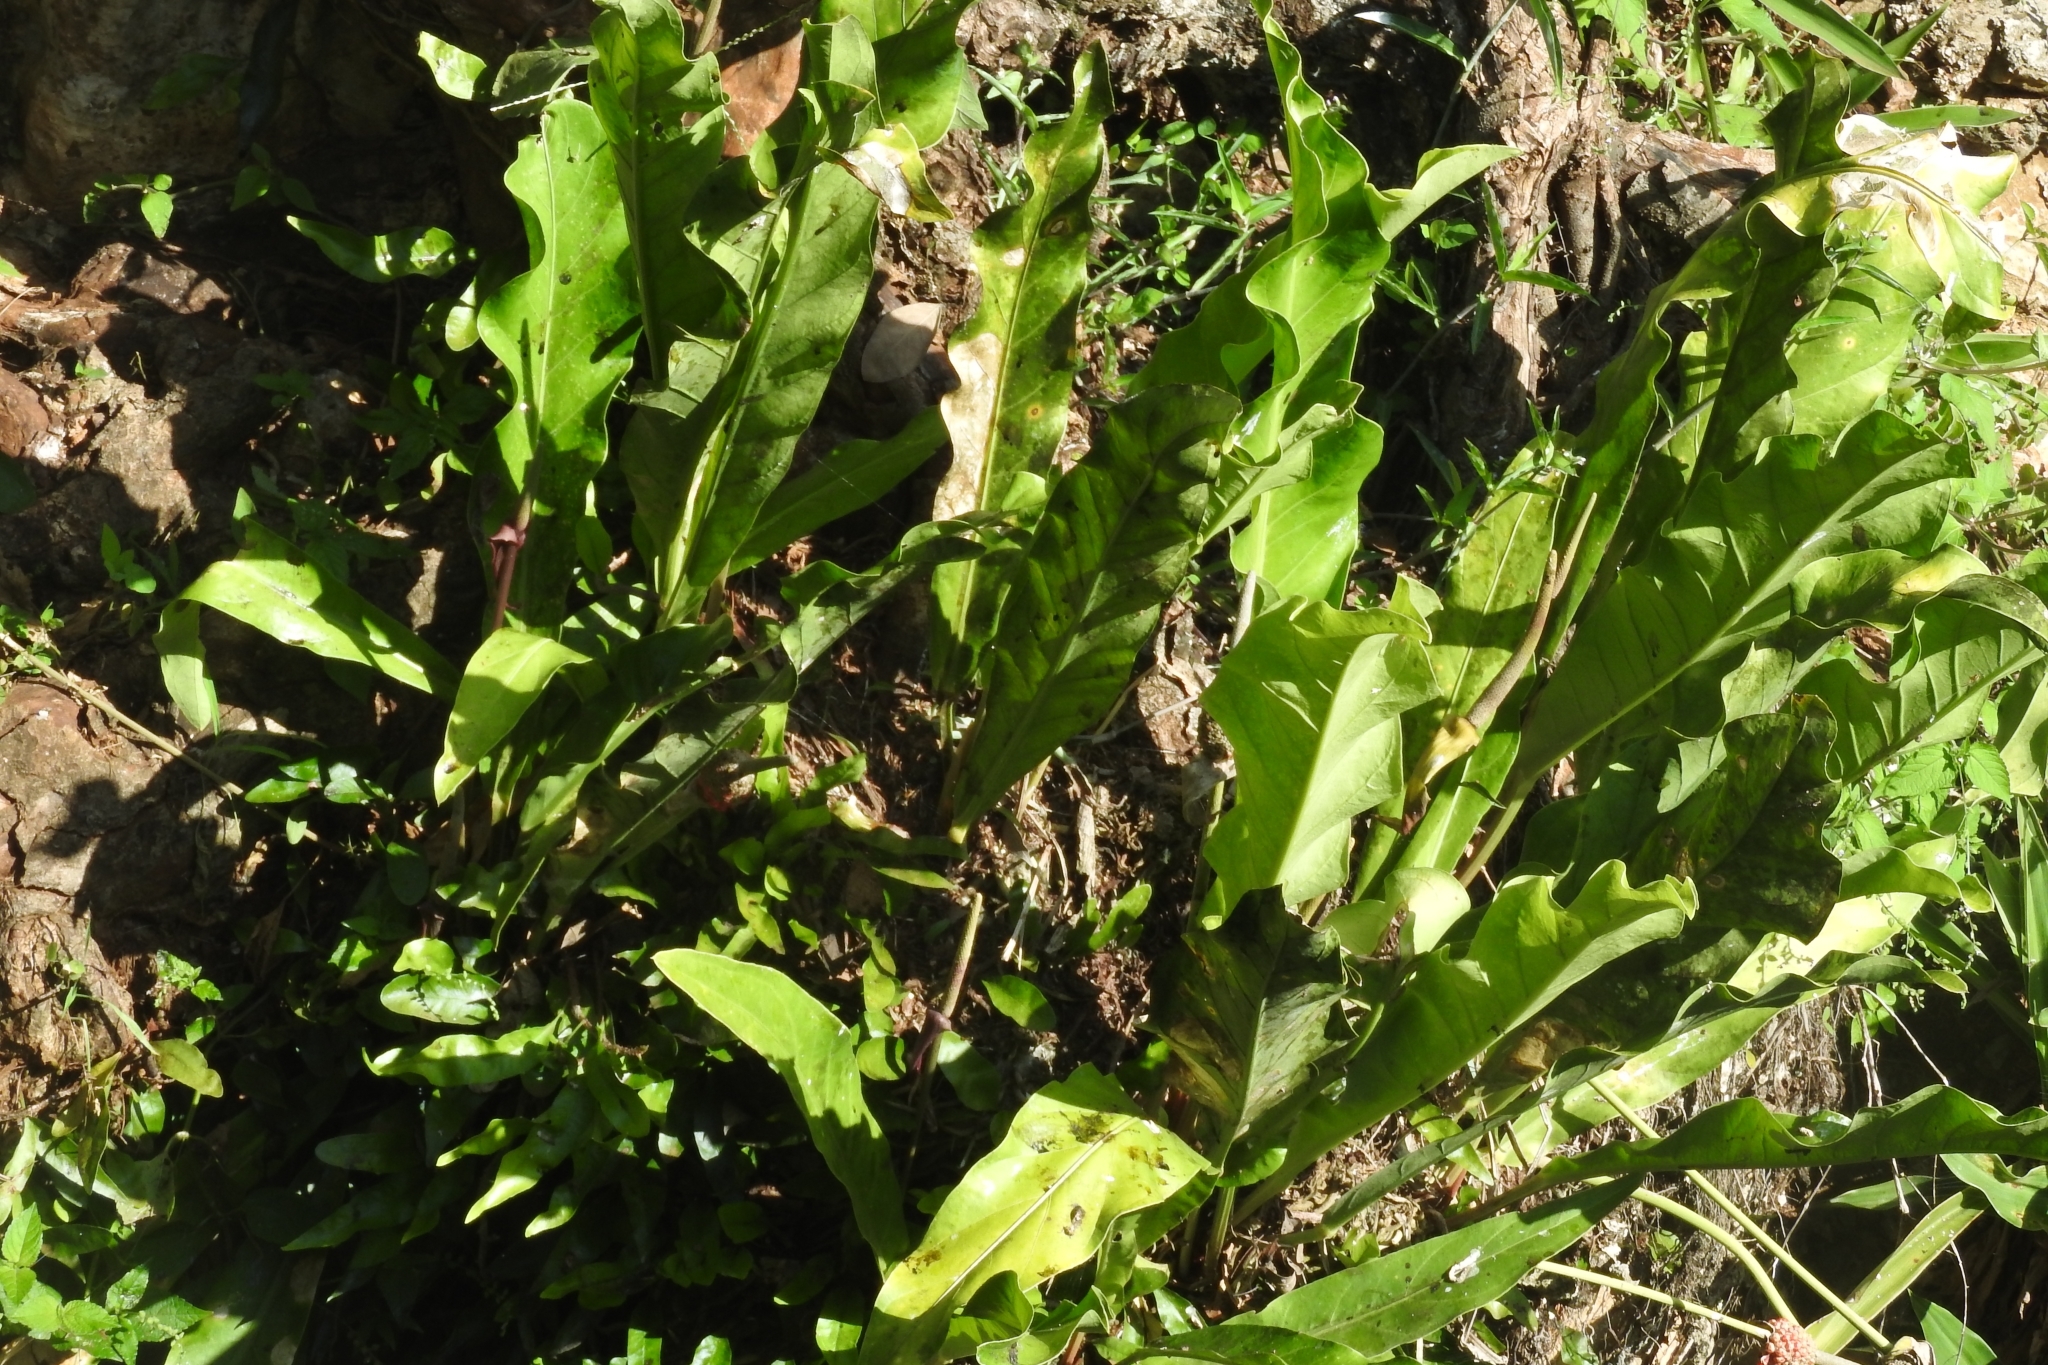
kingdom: Plantae
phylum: Tracheophyta
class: Liliopsida
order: Alismatales
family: Araceae
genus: Anthurium
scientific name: Anthurium schlechtendalii
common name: Laceleaf
